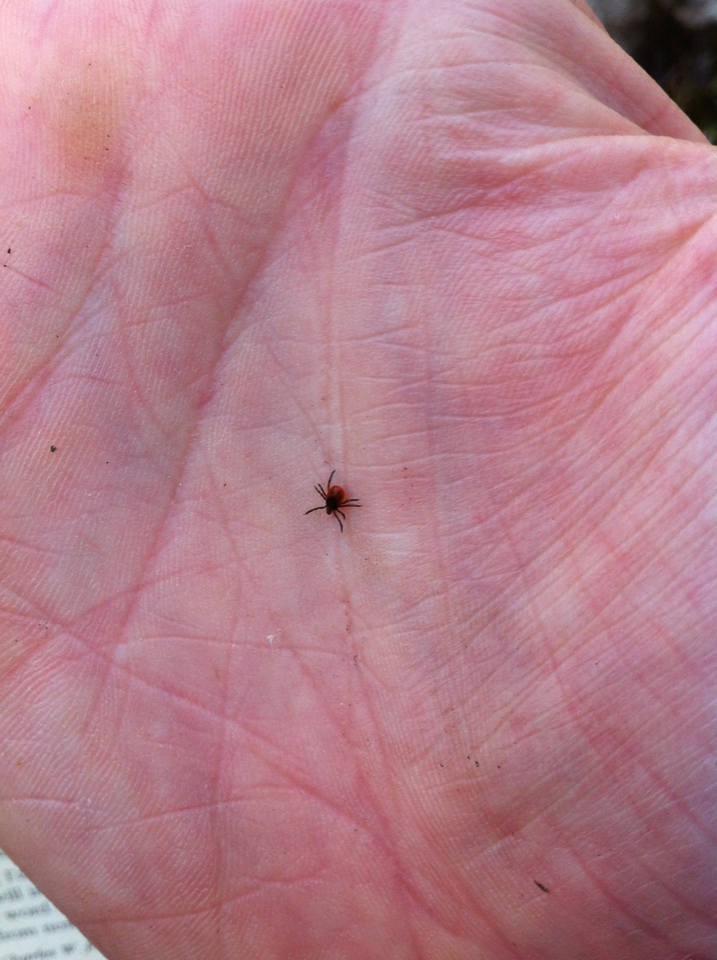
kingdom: Animalia
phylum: Arthropoda
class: Arachnida
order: Ixodida
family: Ixodidae
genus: Ixodes
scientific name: Ixodes scapularis
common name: Black legged tick
